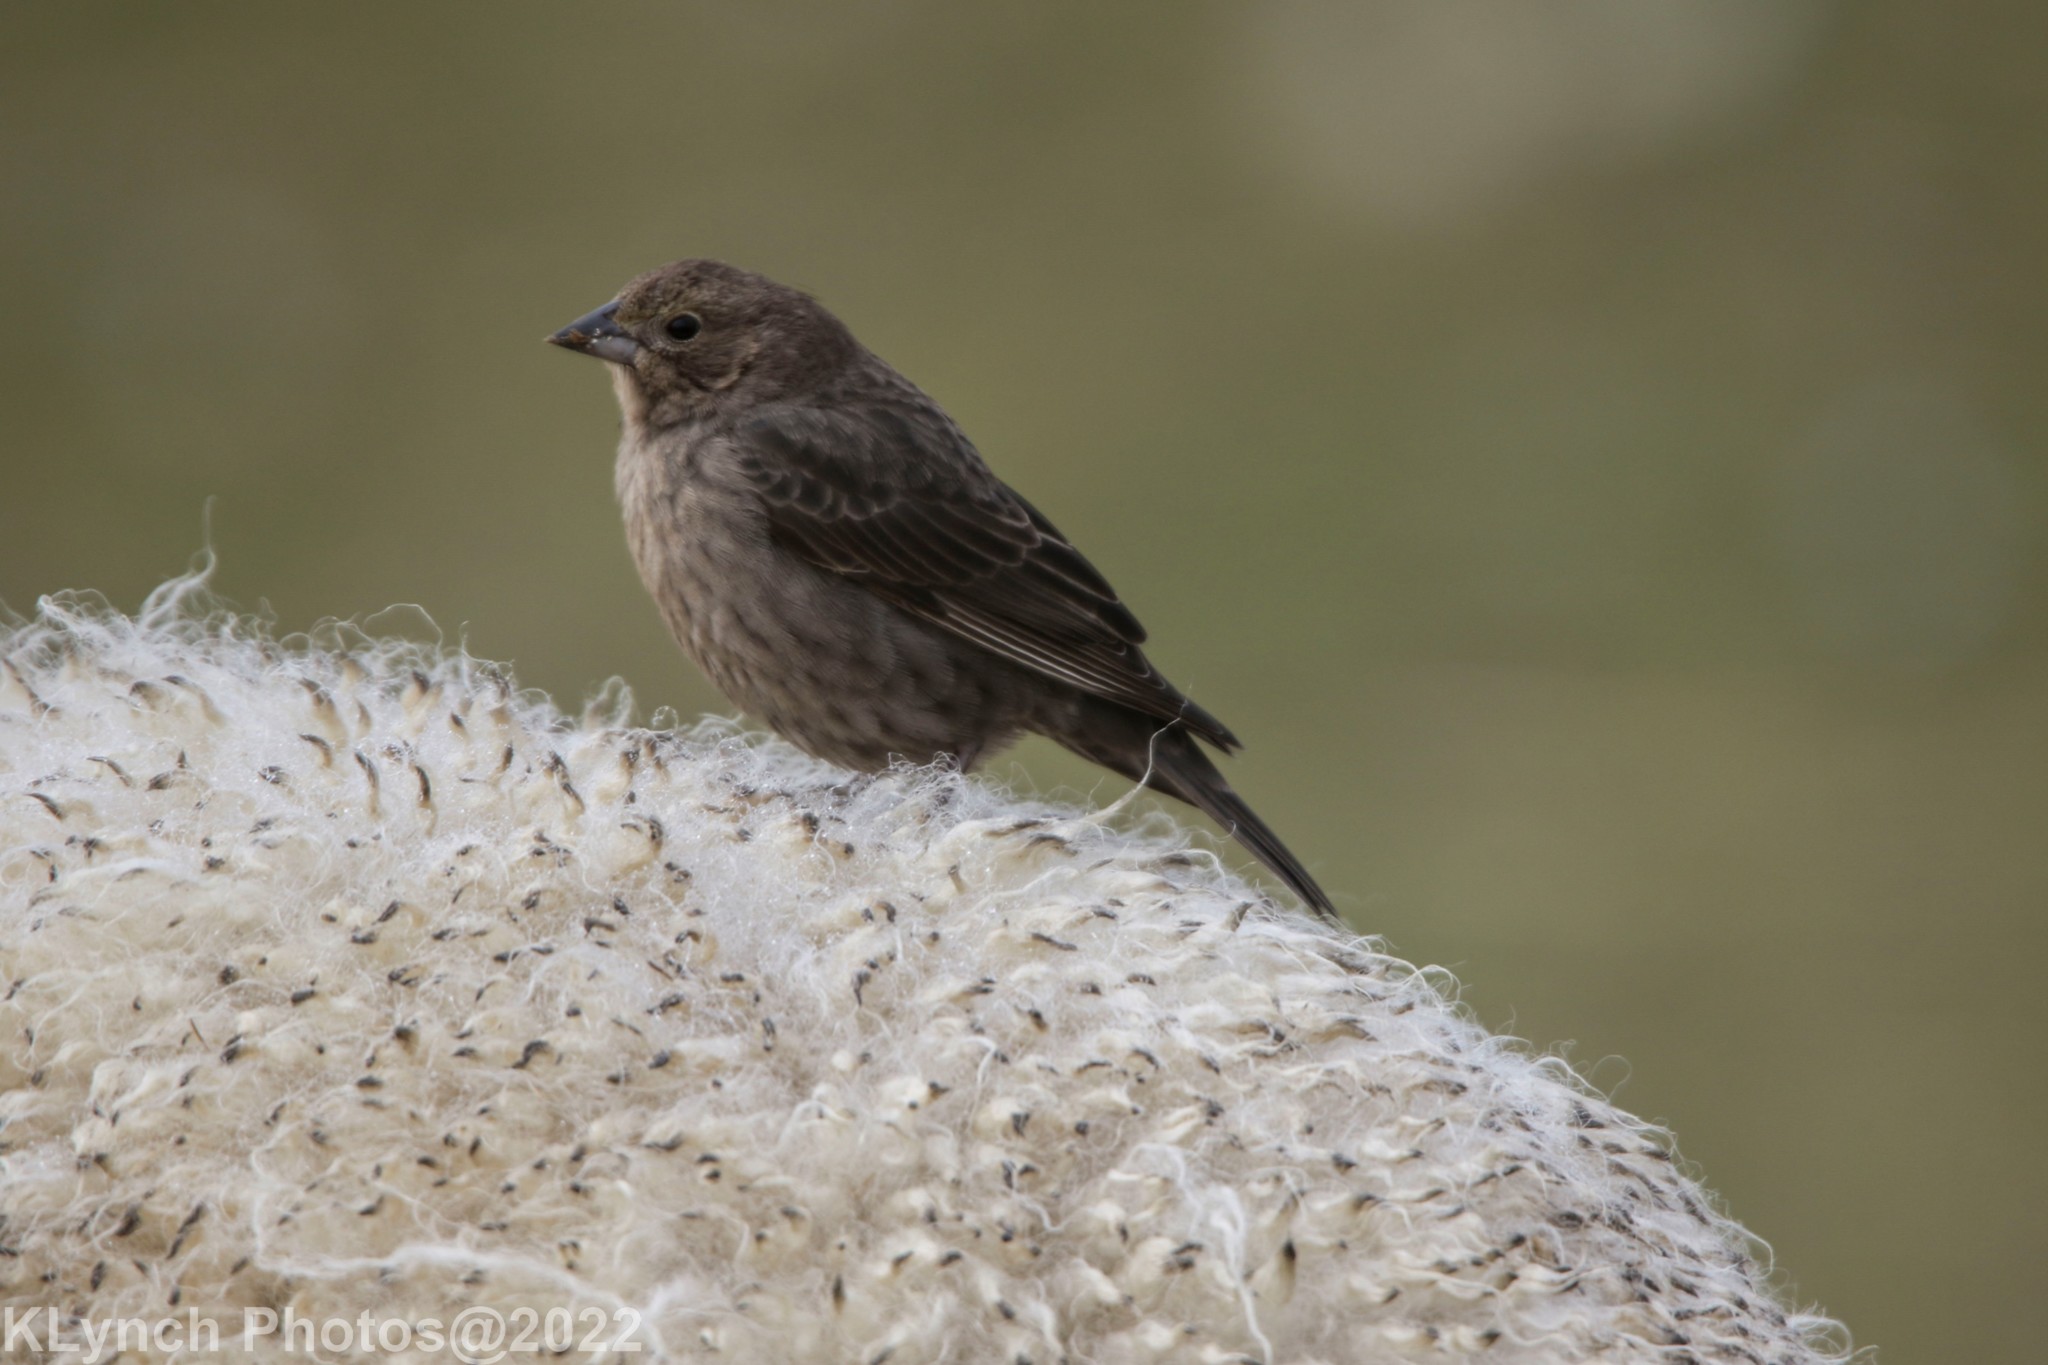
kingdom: Animalia
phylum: Chordata
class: Aves
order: Passeriformes
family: Icteridae
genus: Molothrus
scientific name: Molothrus ater
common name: Brown-headed cowbird
